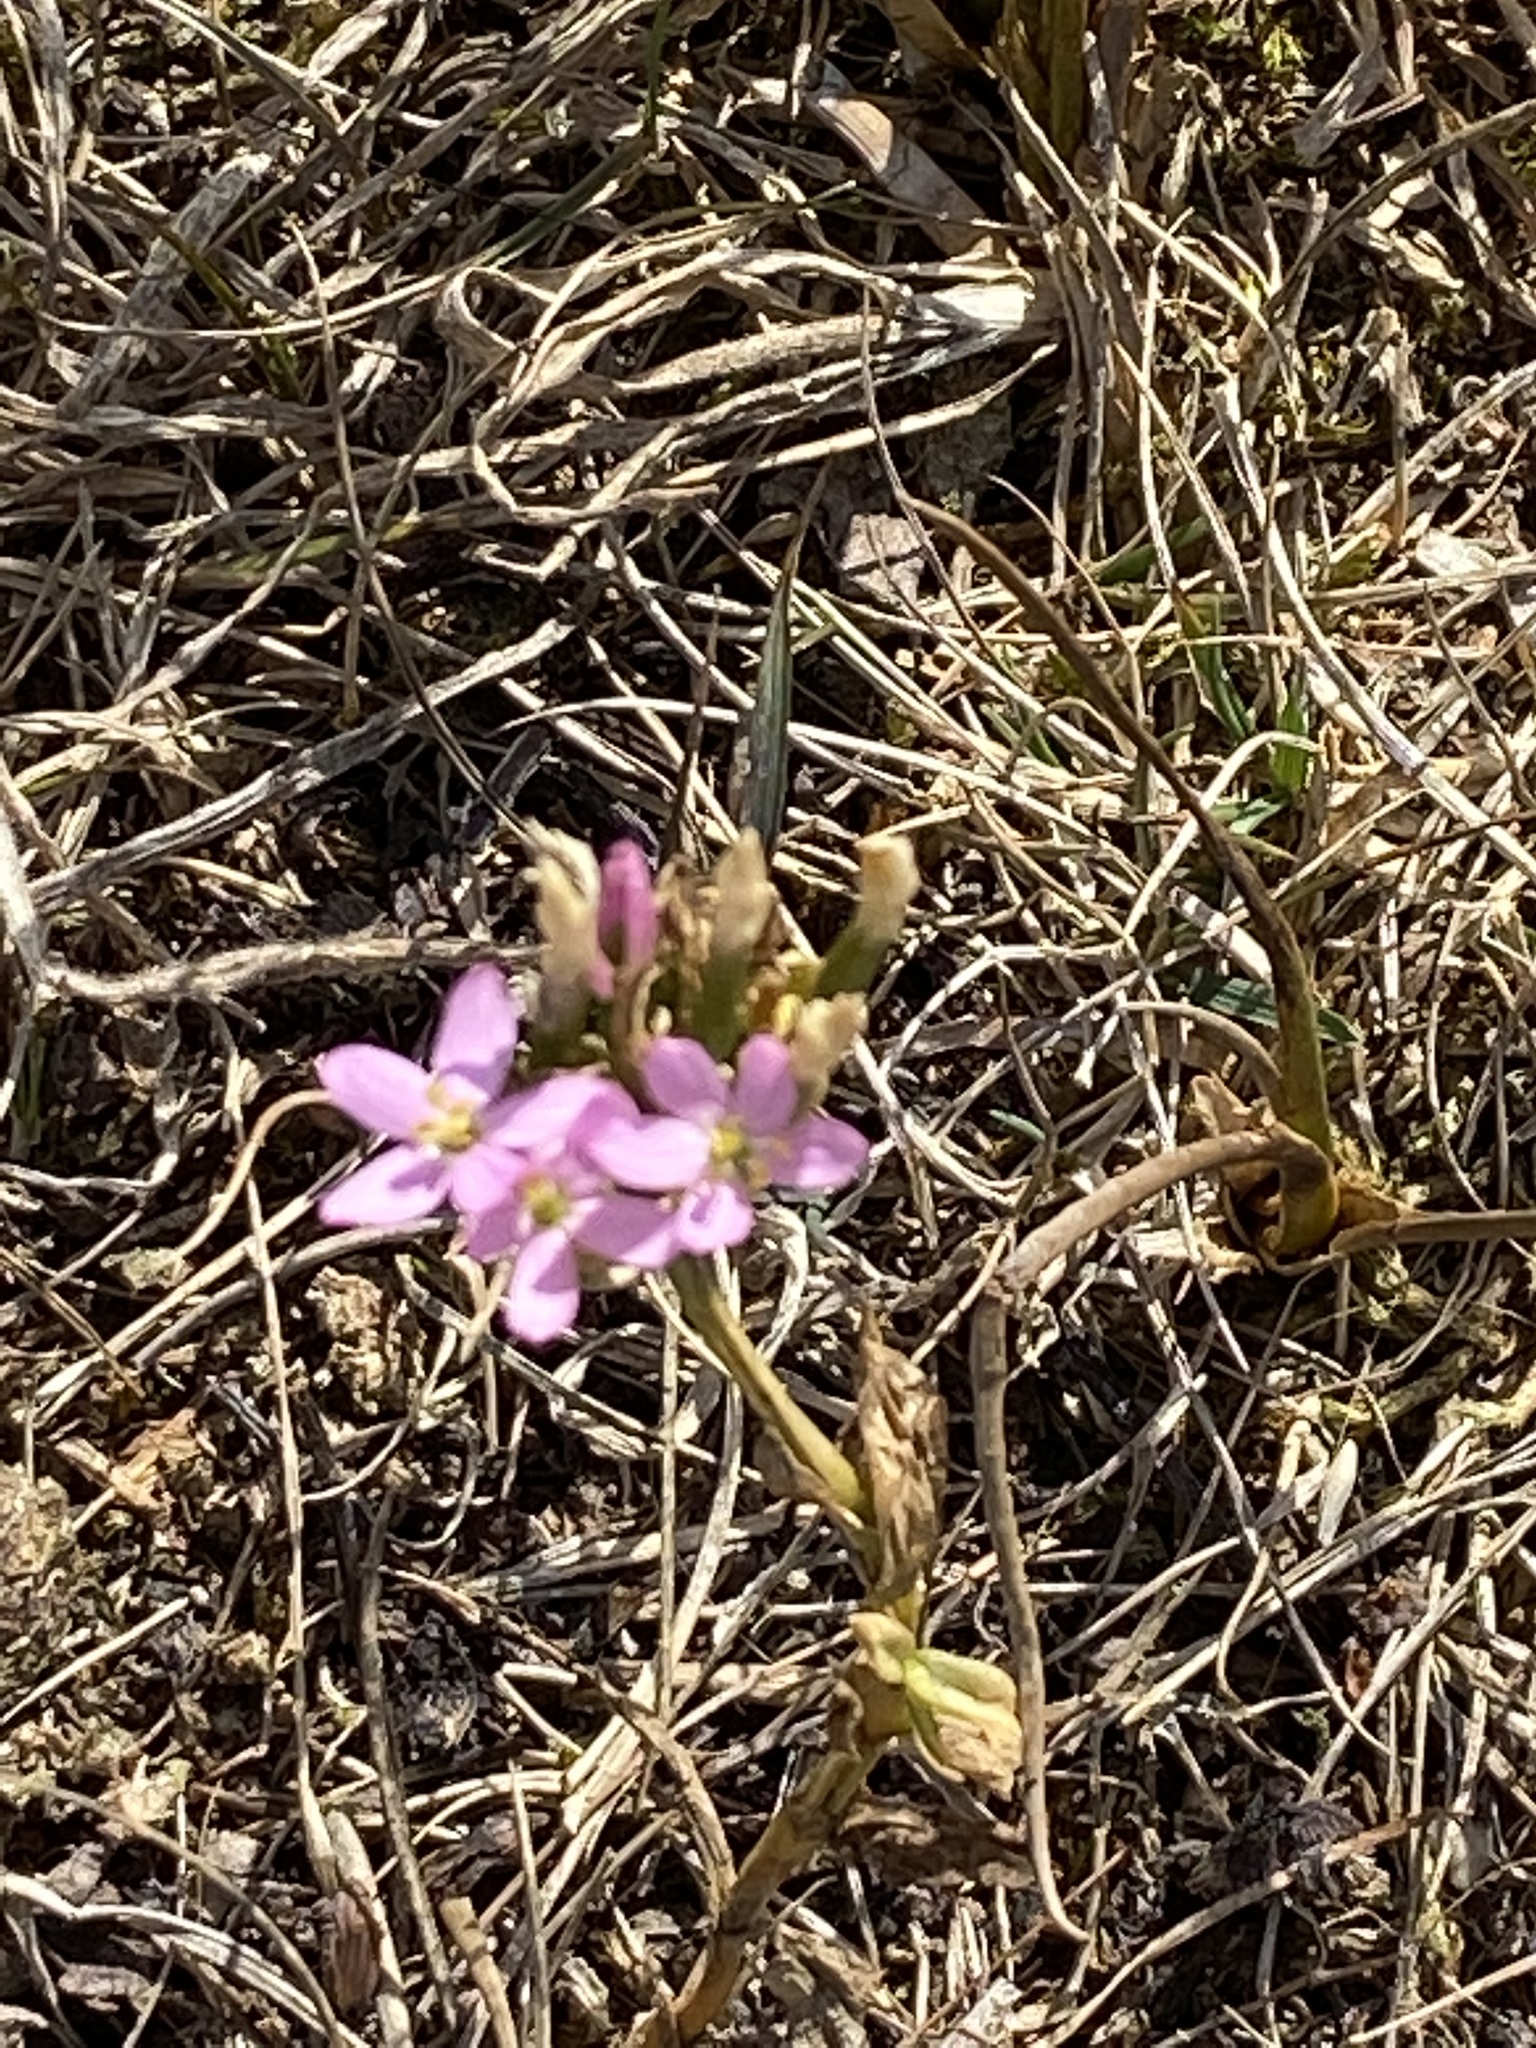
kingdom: Plantae
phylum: Tracheophyta
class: Magnoliopsida
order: Gentianales
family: Gentianaceae
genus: Centaurium
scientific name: Centaurium erythraea
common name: Common centaury
